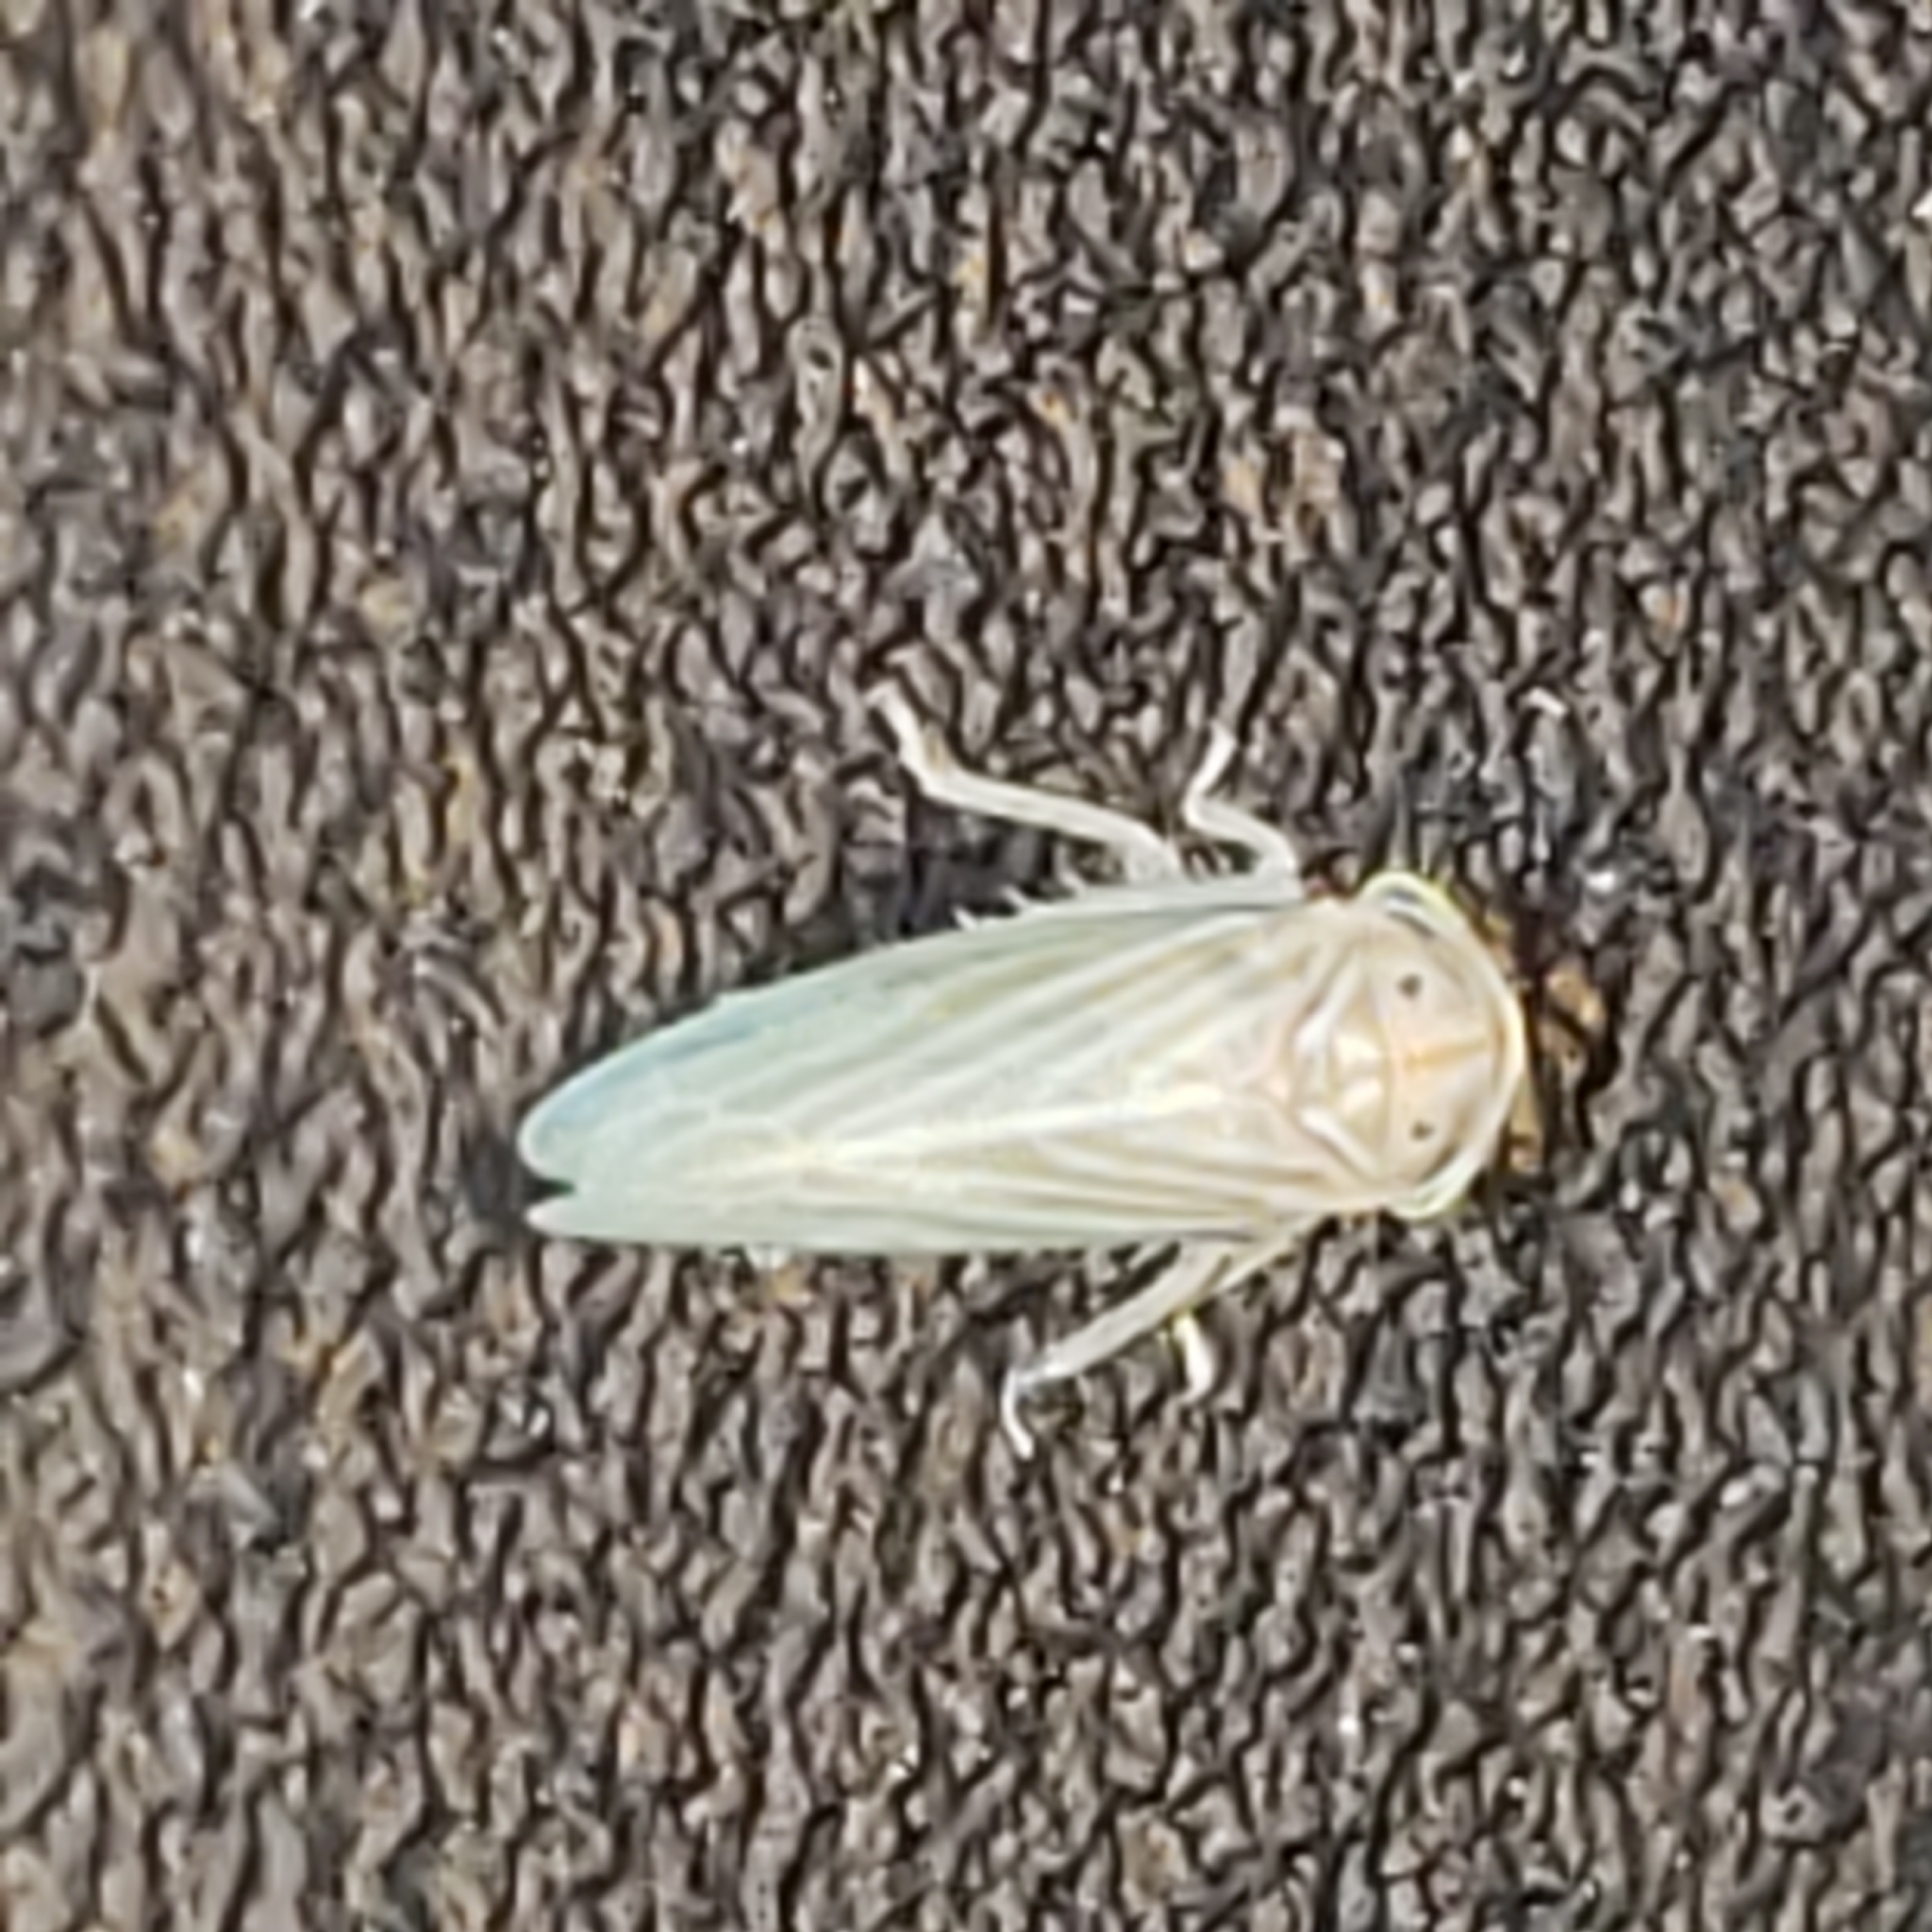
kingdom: Animalia
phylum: Arthropoda
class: Insecta
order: Hemiptera
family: Cicadellidae
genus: Agallia
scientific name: Agallia constricta
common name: The constricted leafhopper
